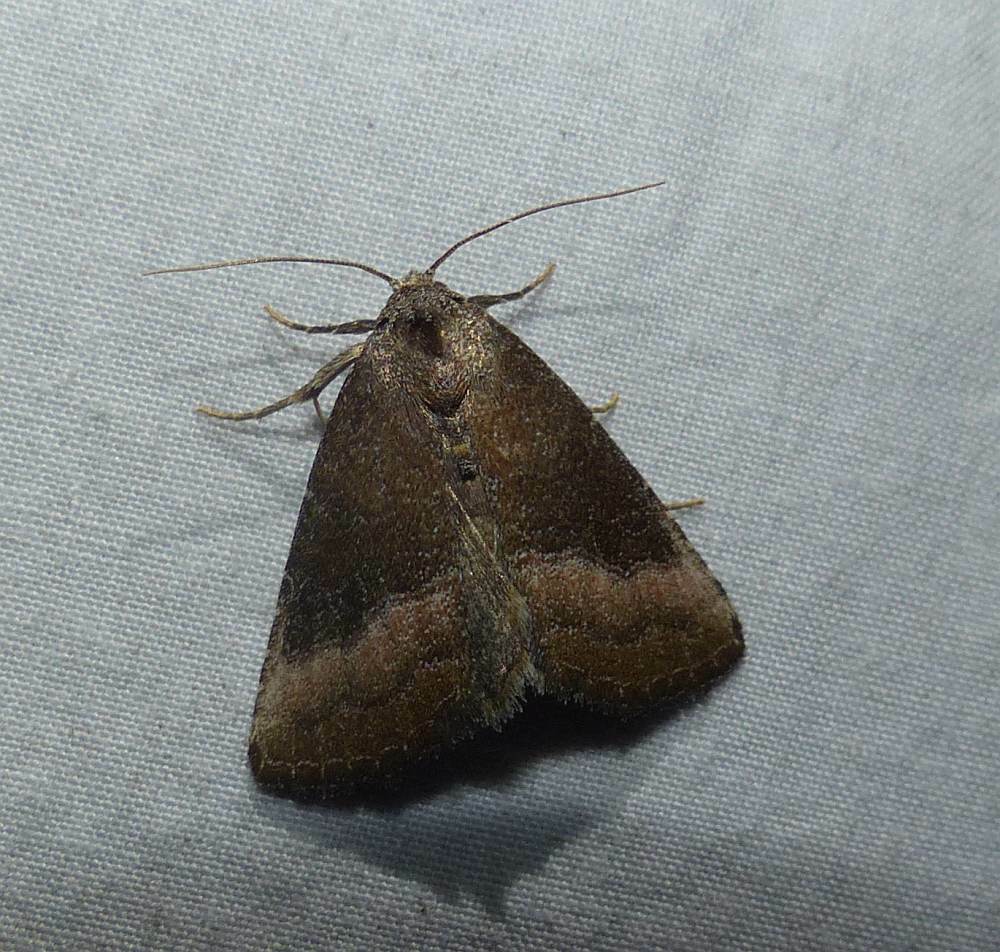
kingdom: Animalia
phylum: Arthropoda
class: Insecta
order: Lepidoptera
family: Noctuidae
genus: Ogdoconta
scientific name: Ogdoconta cinereola
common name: Common pinkband
